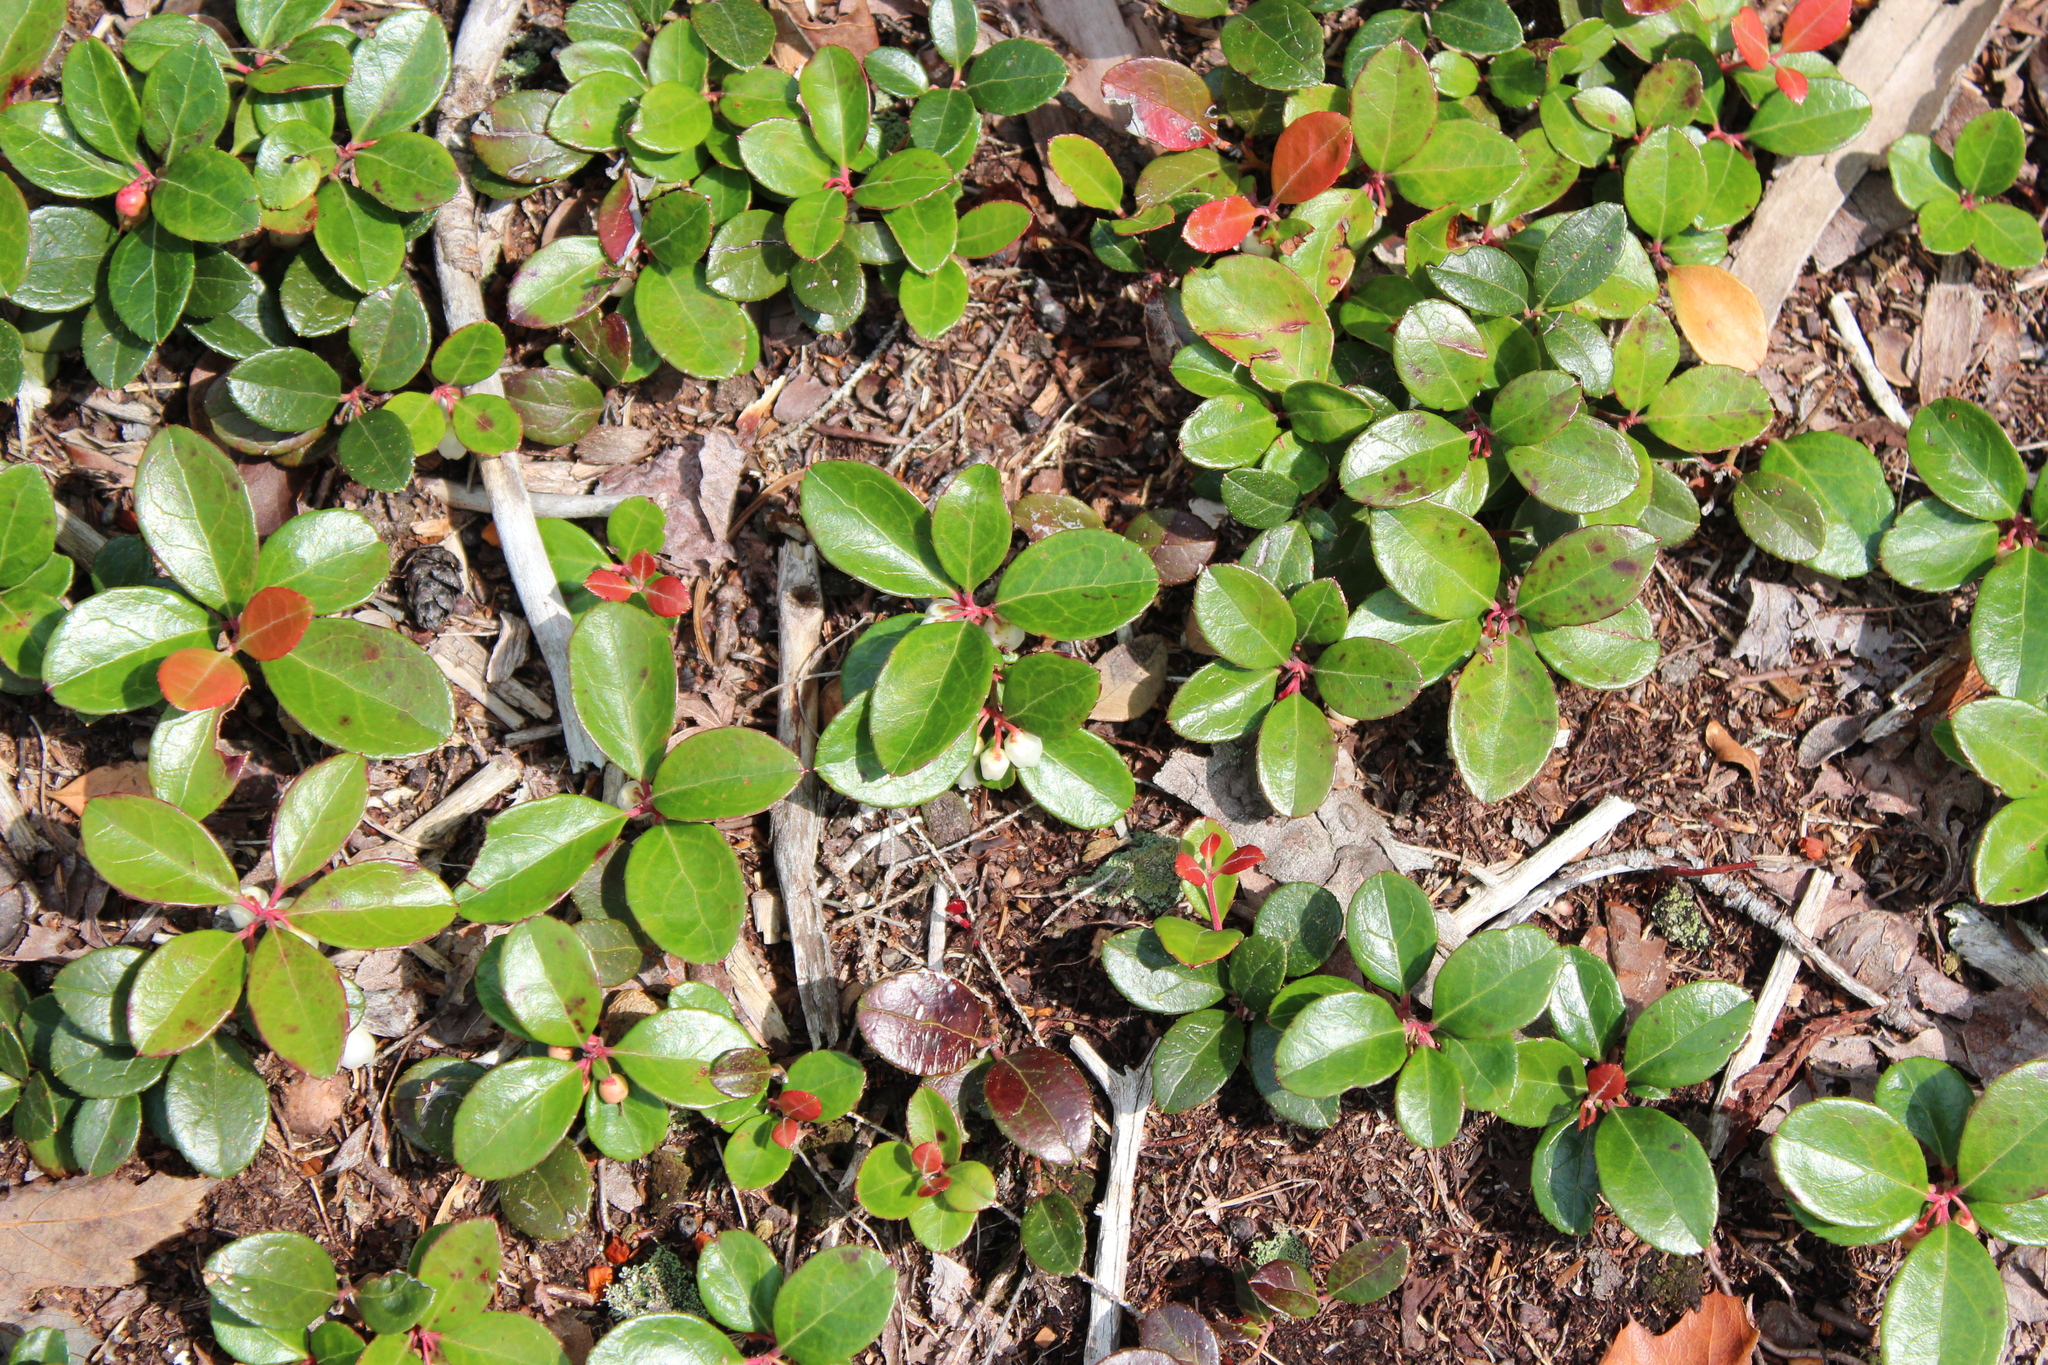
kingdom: Plantae
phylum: Tracheophyta
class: Magnoliopsida
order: Ericales
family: Ericaceae
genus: Gaultheria
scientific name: Gaultheria procumbens
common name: Checkerberry
